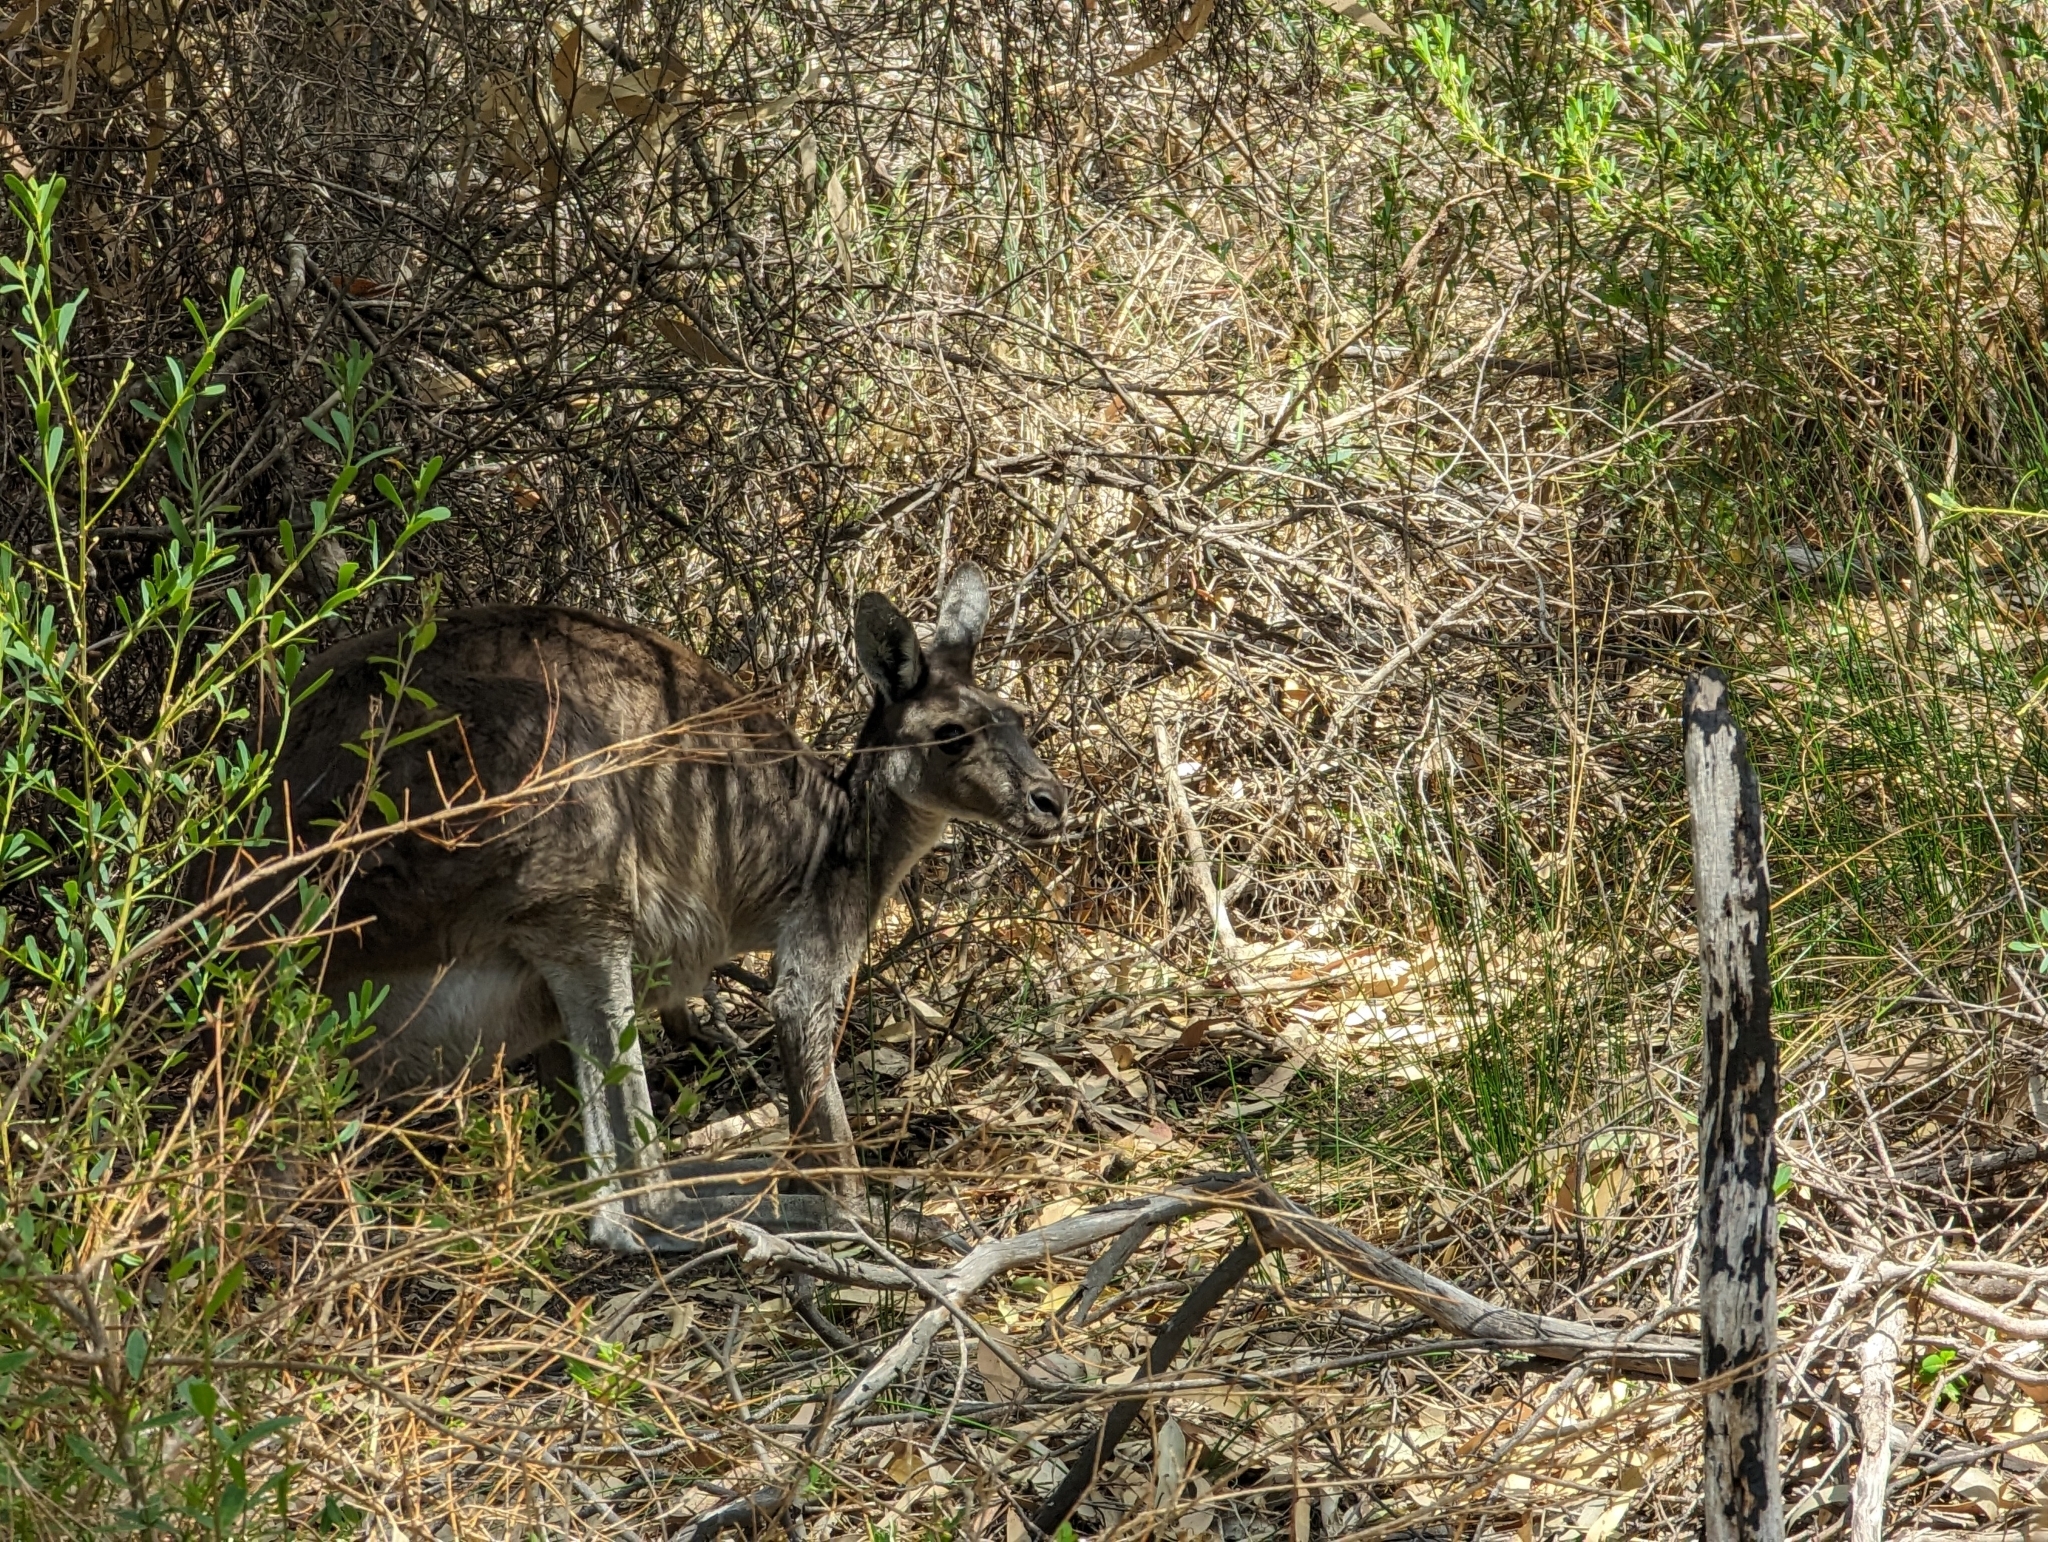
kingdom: Animalia
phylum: Chordata
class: Mammalia
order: Diprotodontia
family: Macropodidae
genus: Macropus
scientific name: Macropus fuliginosus
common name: Western grey kangaroo
